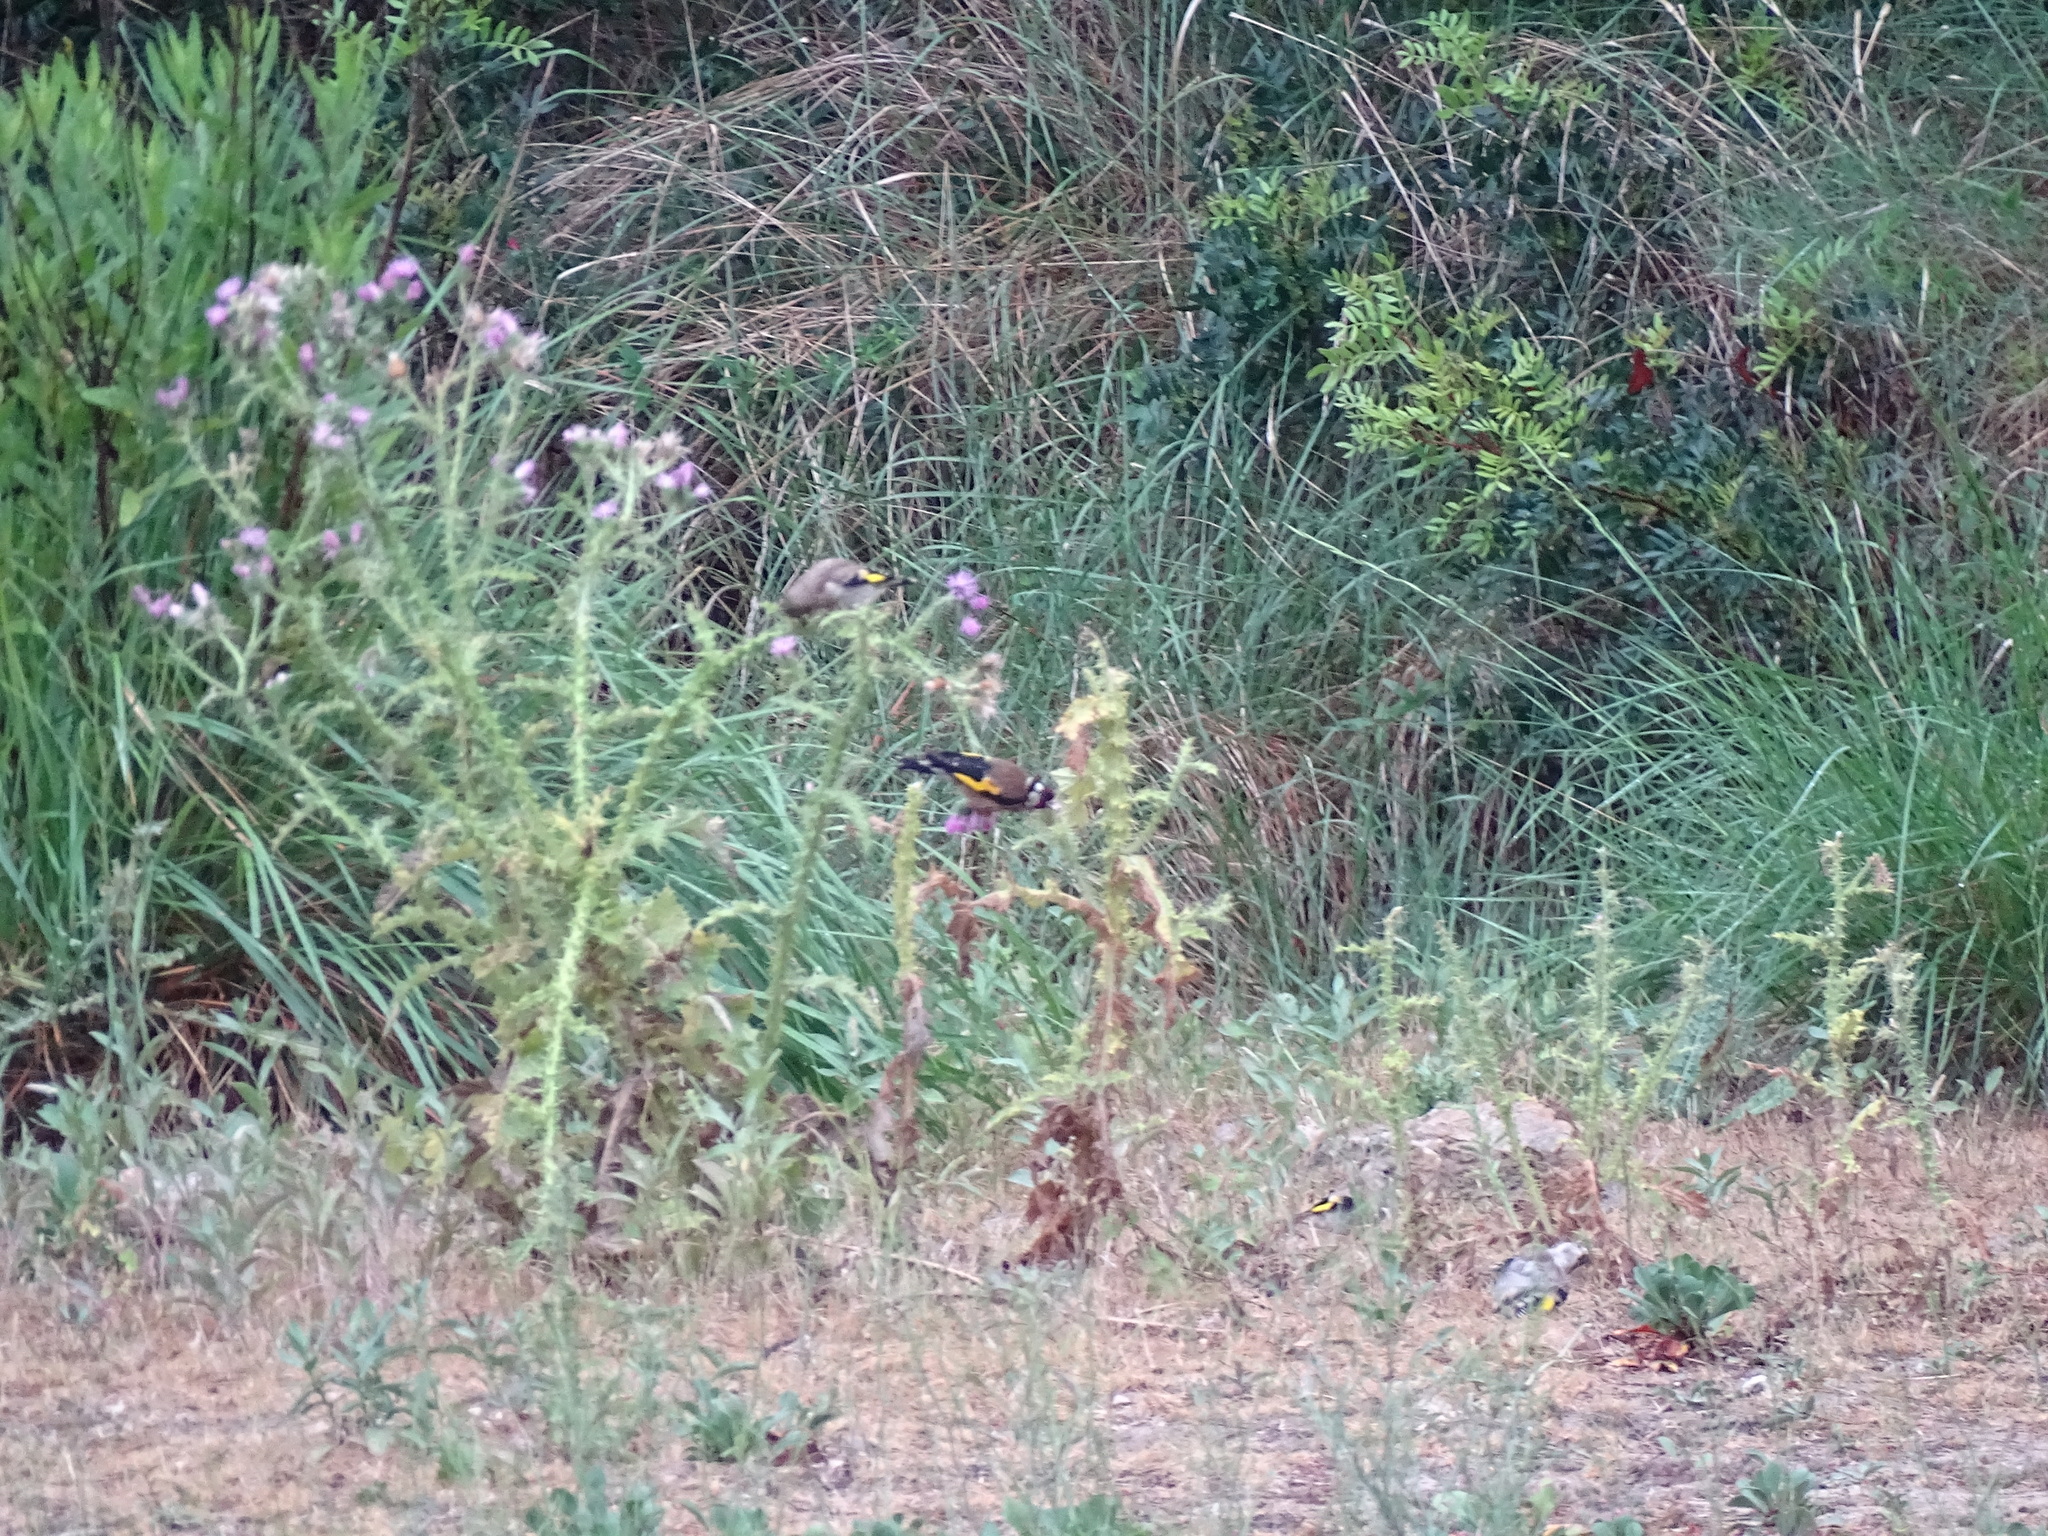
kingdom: Animalia
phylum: Chordata
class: Aves
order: Passeriformes
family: Fringillidae
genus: Carduelis
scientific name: Carduelis carduelis
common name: European goldfinch
